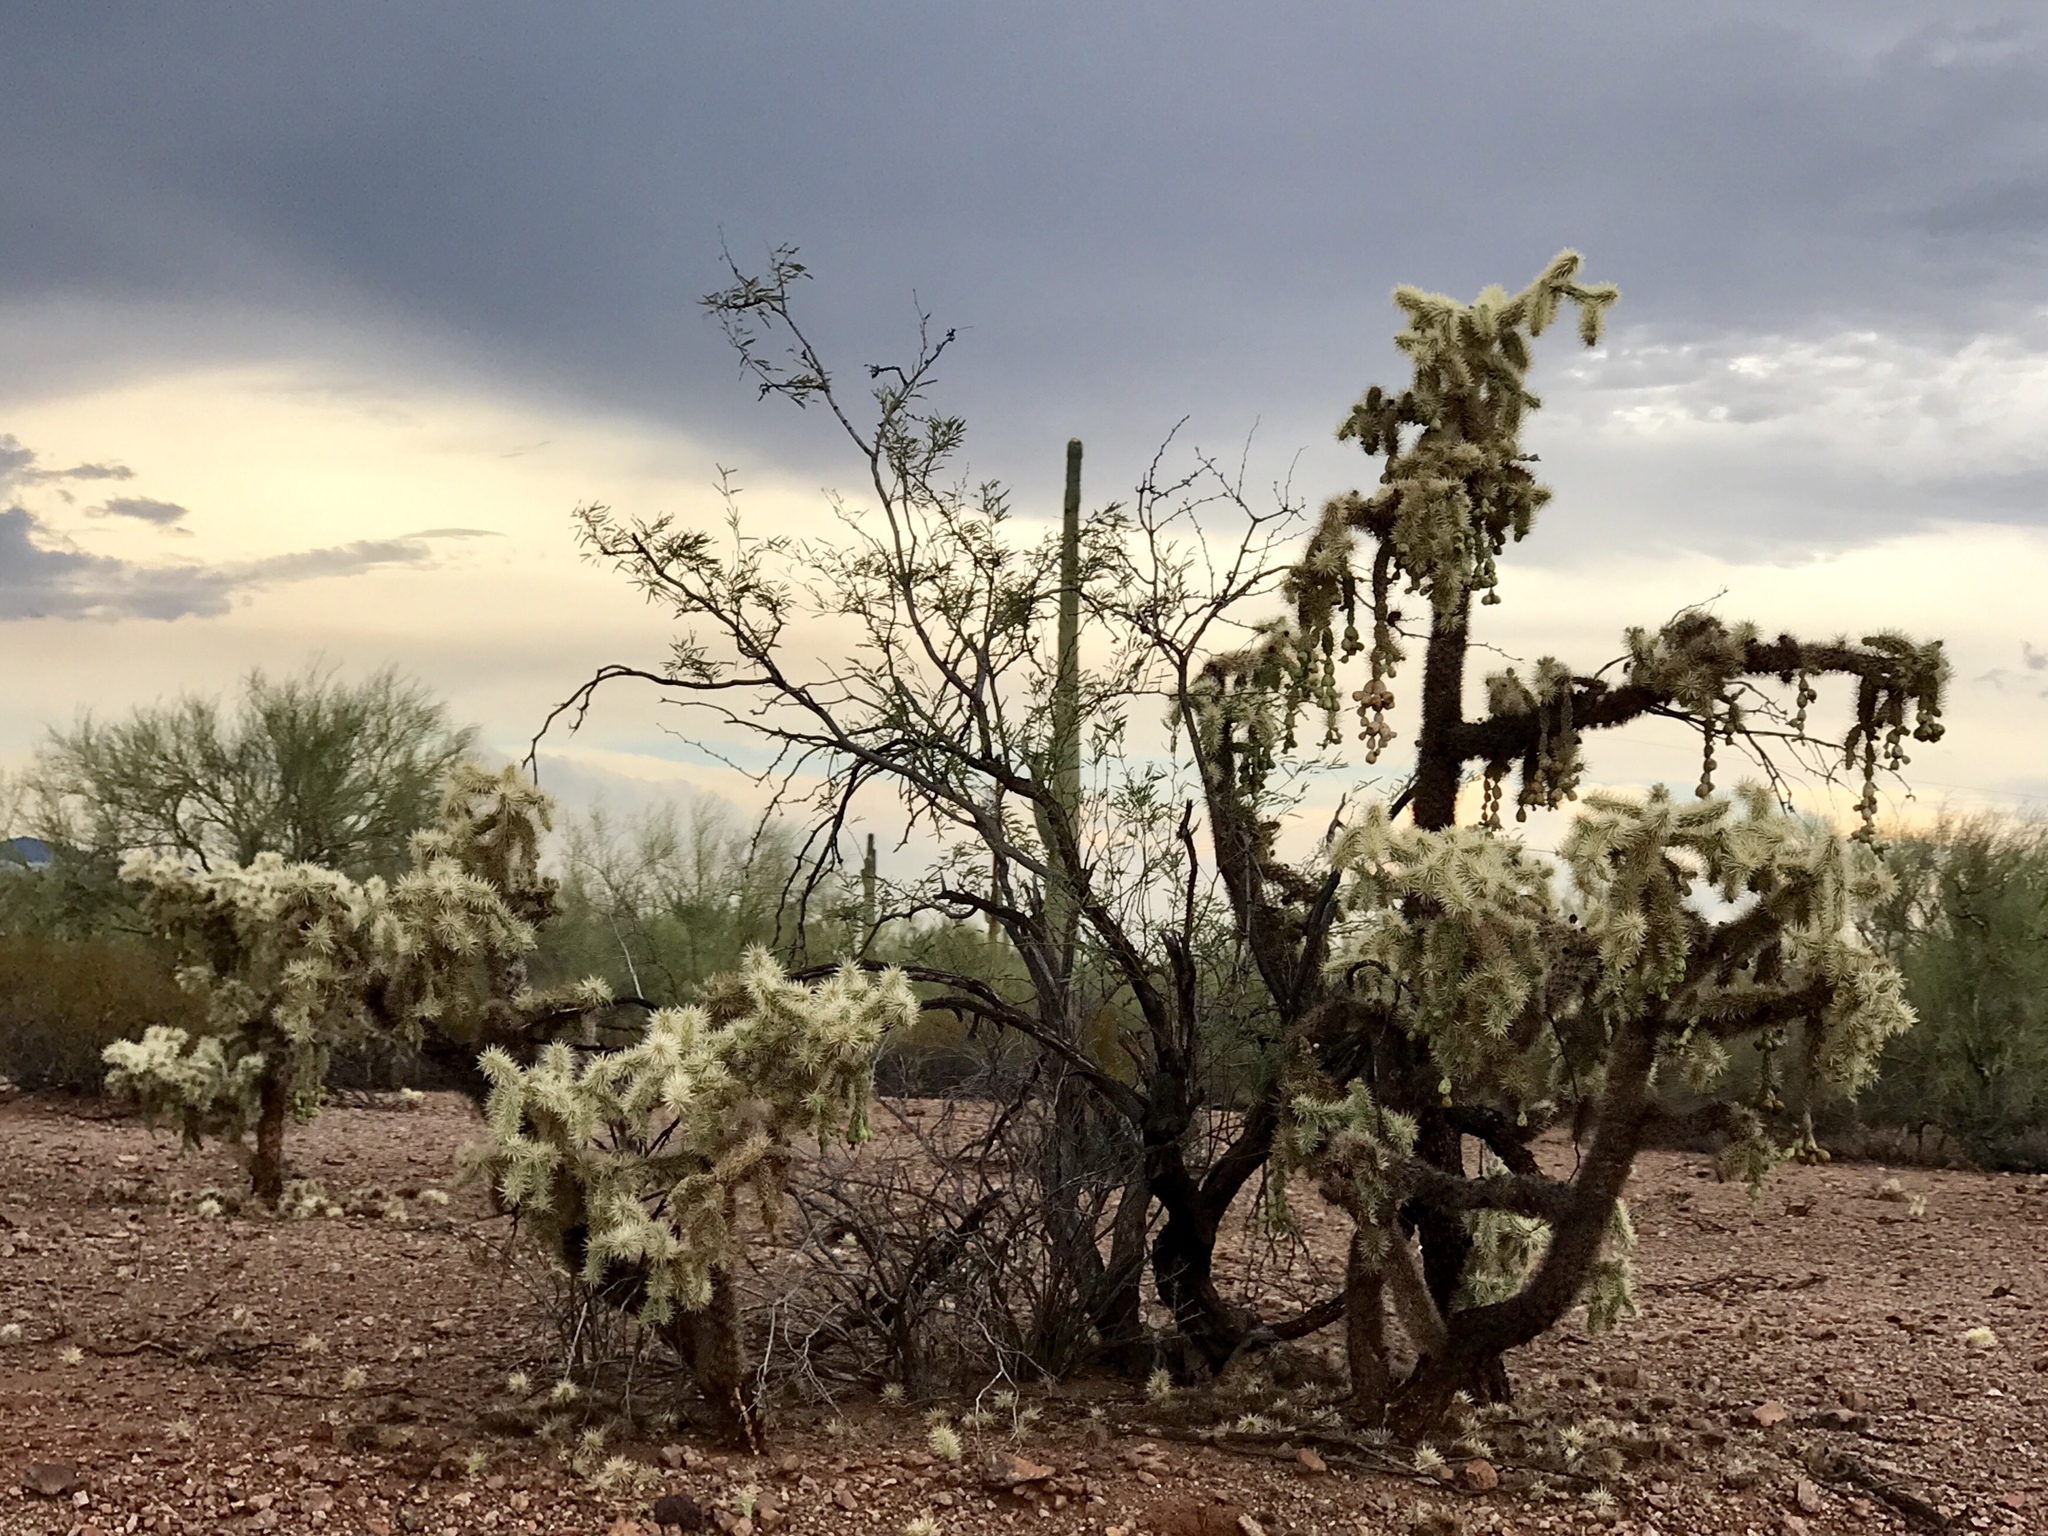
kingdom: Plantae
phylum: Tracheophyta
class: Magnoliopsida
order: Caryophyllales
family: Cactaceae
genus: Cylindropuntia
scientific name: Cylindropuntia fulgida
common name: Jumping cholla
